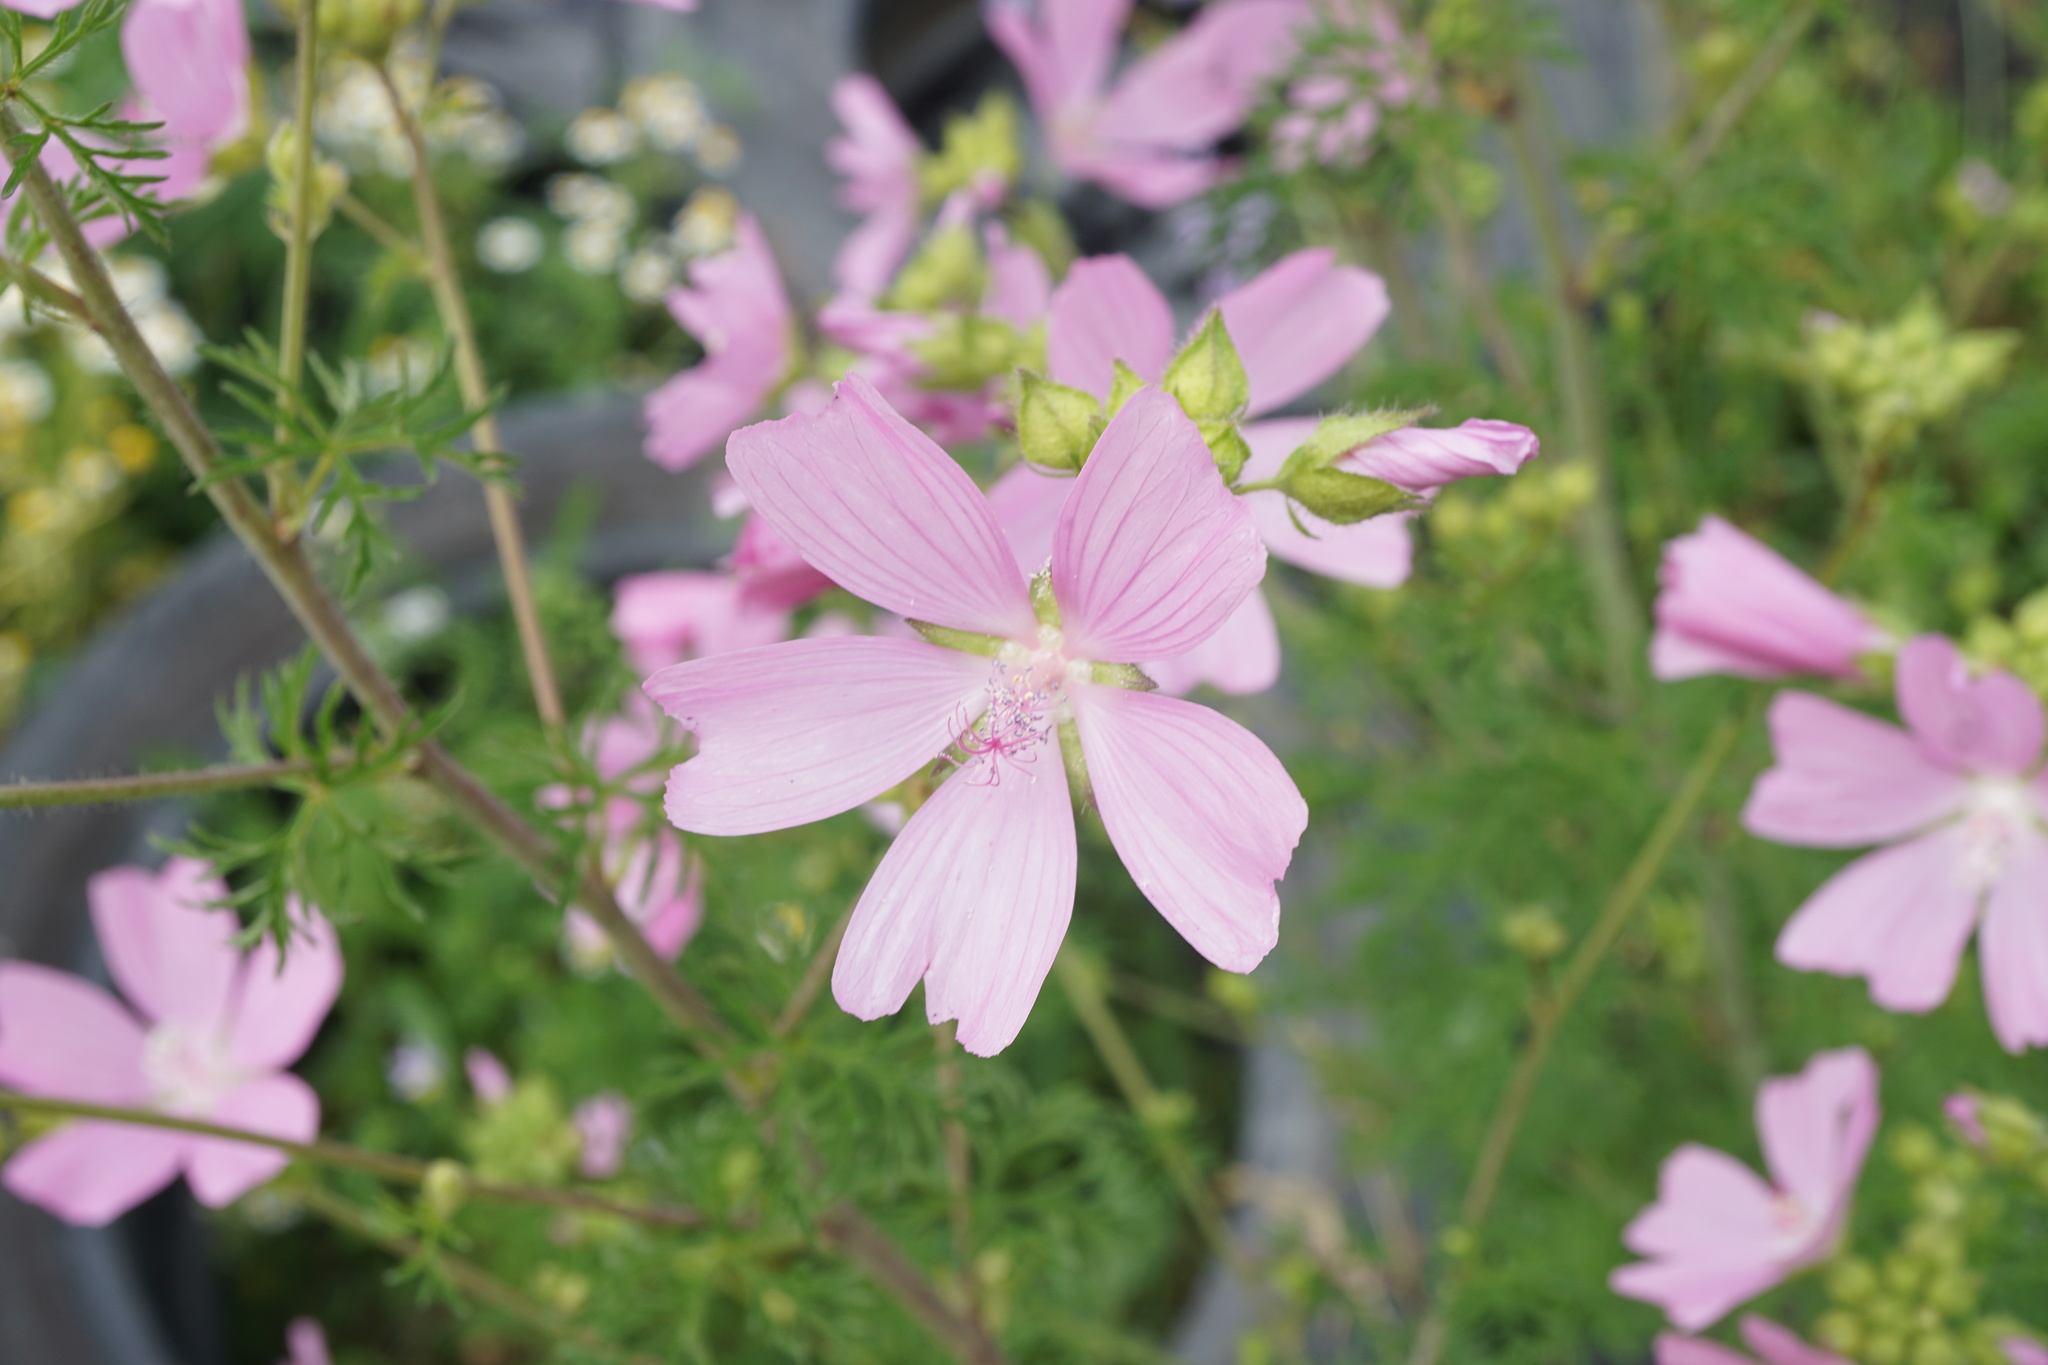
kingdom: Plantae
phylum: Tracheophyta
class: Magnoliopsida
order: Malvales
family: Malvaceae
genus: Malva
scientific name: Malva moschata
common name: Musk mallow
